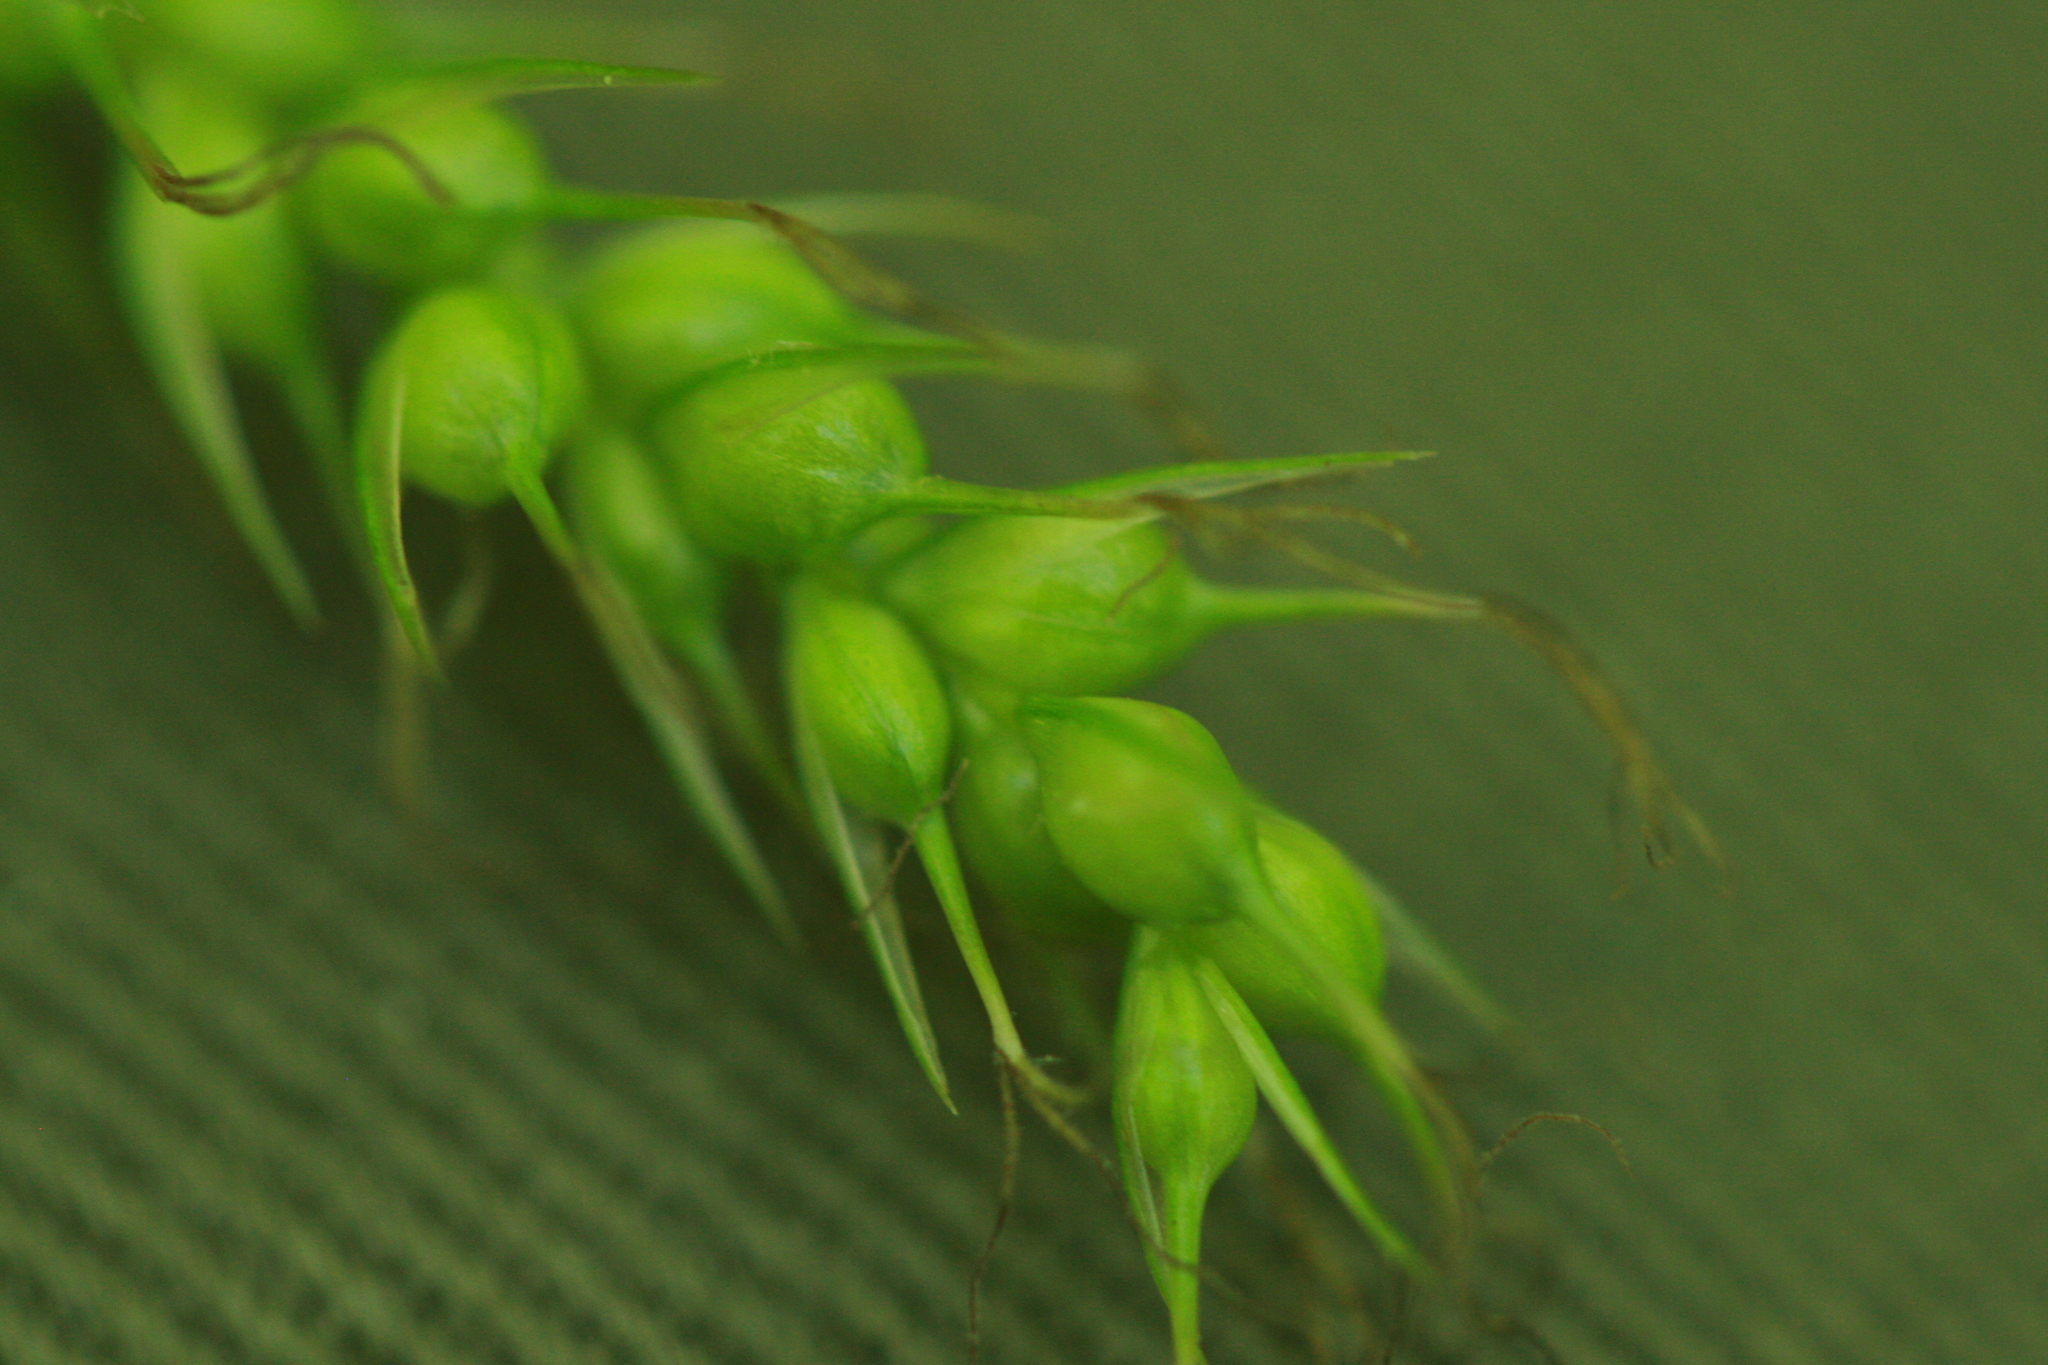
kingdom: Plantae
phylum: Tracheophyta
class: Liliopsida
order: Poales
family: Cyperaceae
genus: Carex
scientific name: Carex sprengelii
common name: Long-beaked sedge
